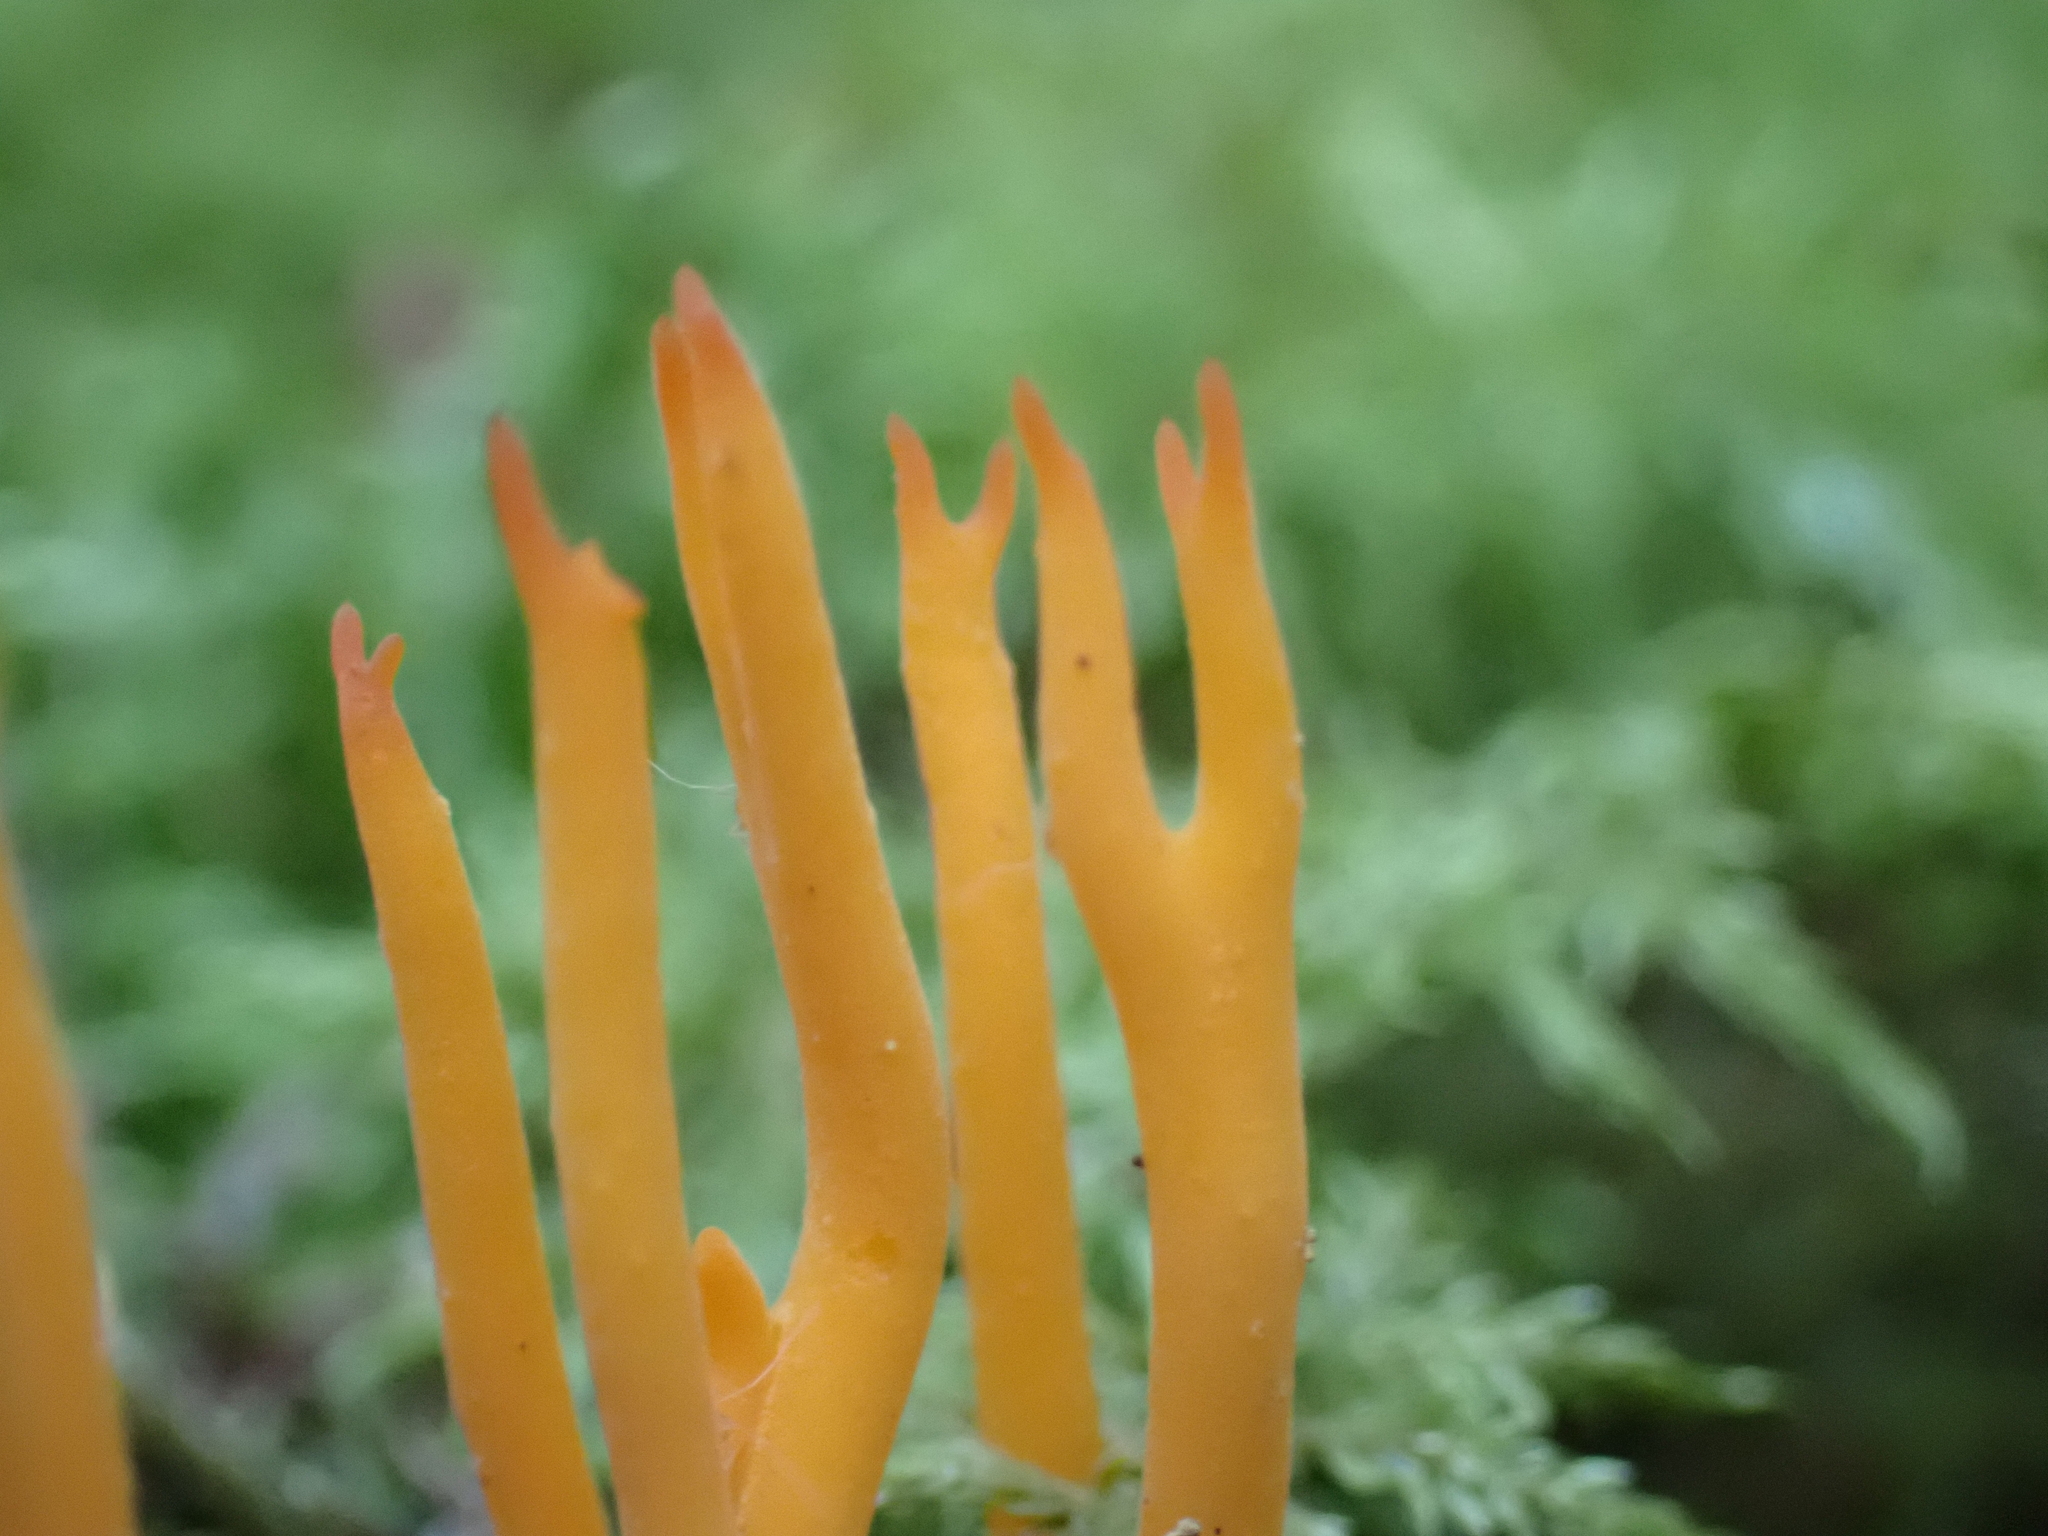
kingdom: Fungi
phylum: Basidiomycota
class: Dacrymycetes
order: Dacrymycetales
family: Dacrymycetaceae
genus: Calocera
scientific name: Calocera viscosa
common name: Yellow stagshorn
